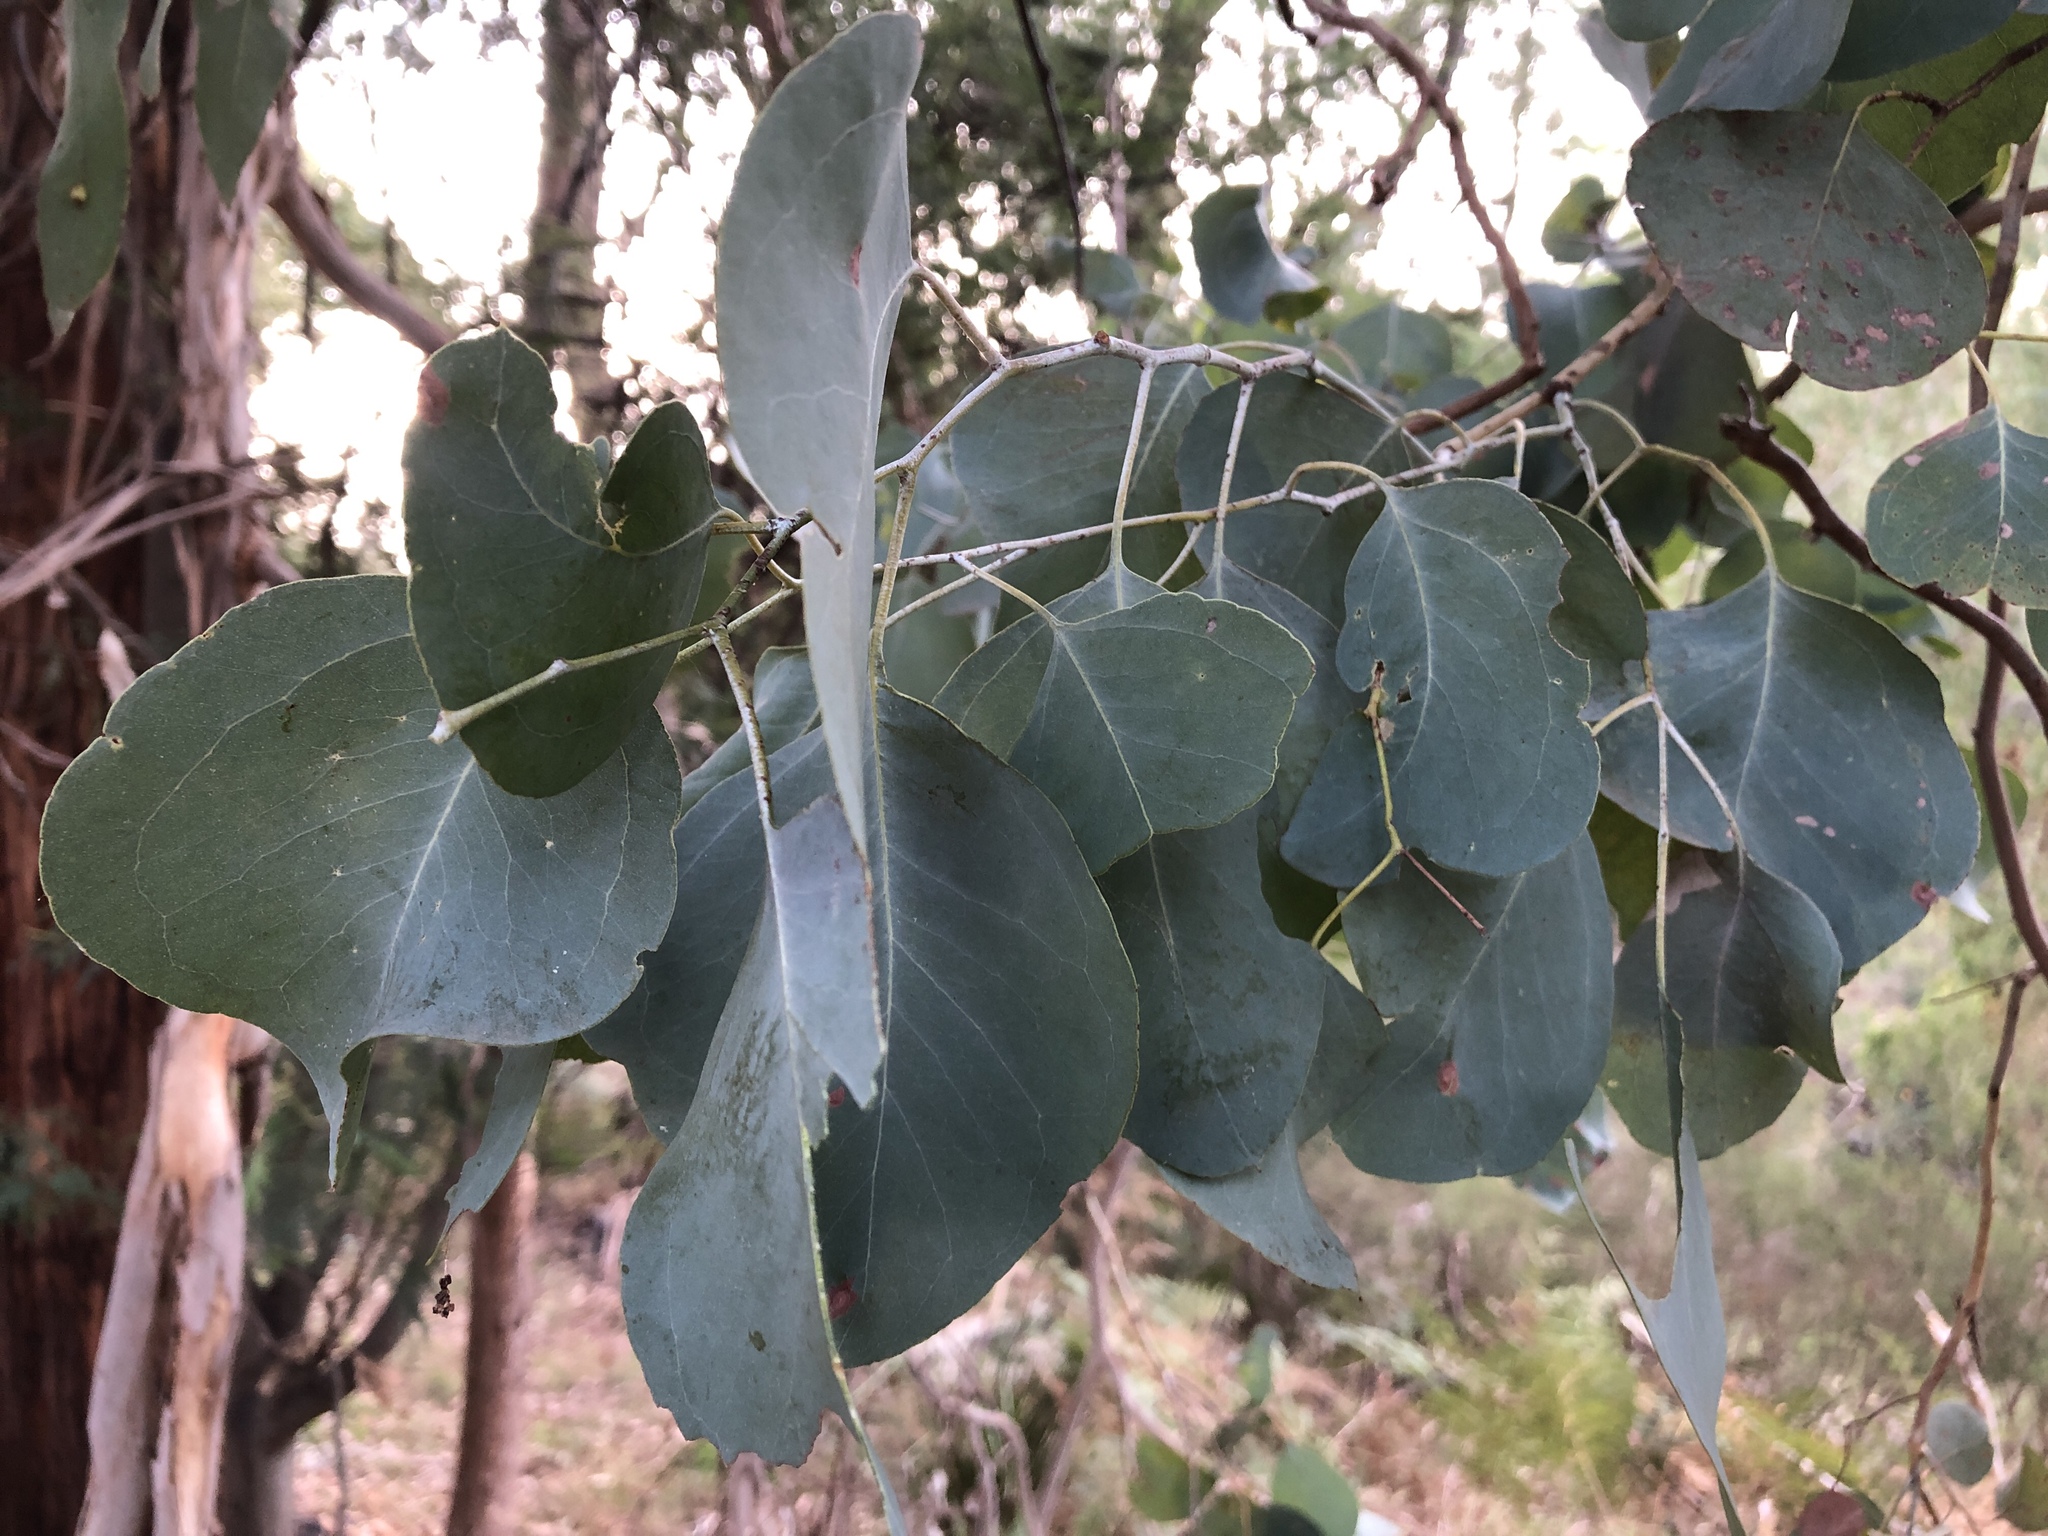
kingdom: Plantae
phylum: Tracheophyta
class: Magnoliopsida
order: Myrtales
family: Myrtaceae
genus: Eucalyptus
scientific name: Eucalyptus polyanthemos
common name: Red-box
